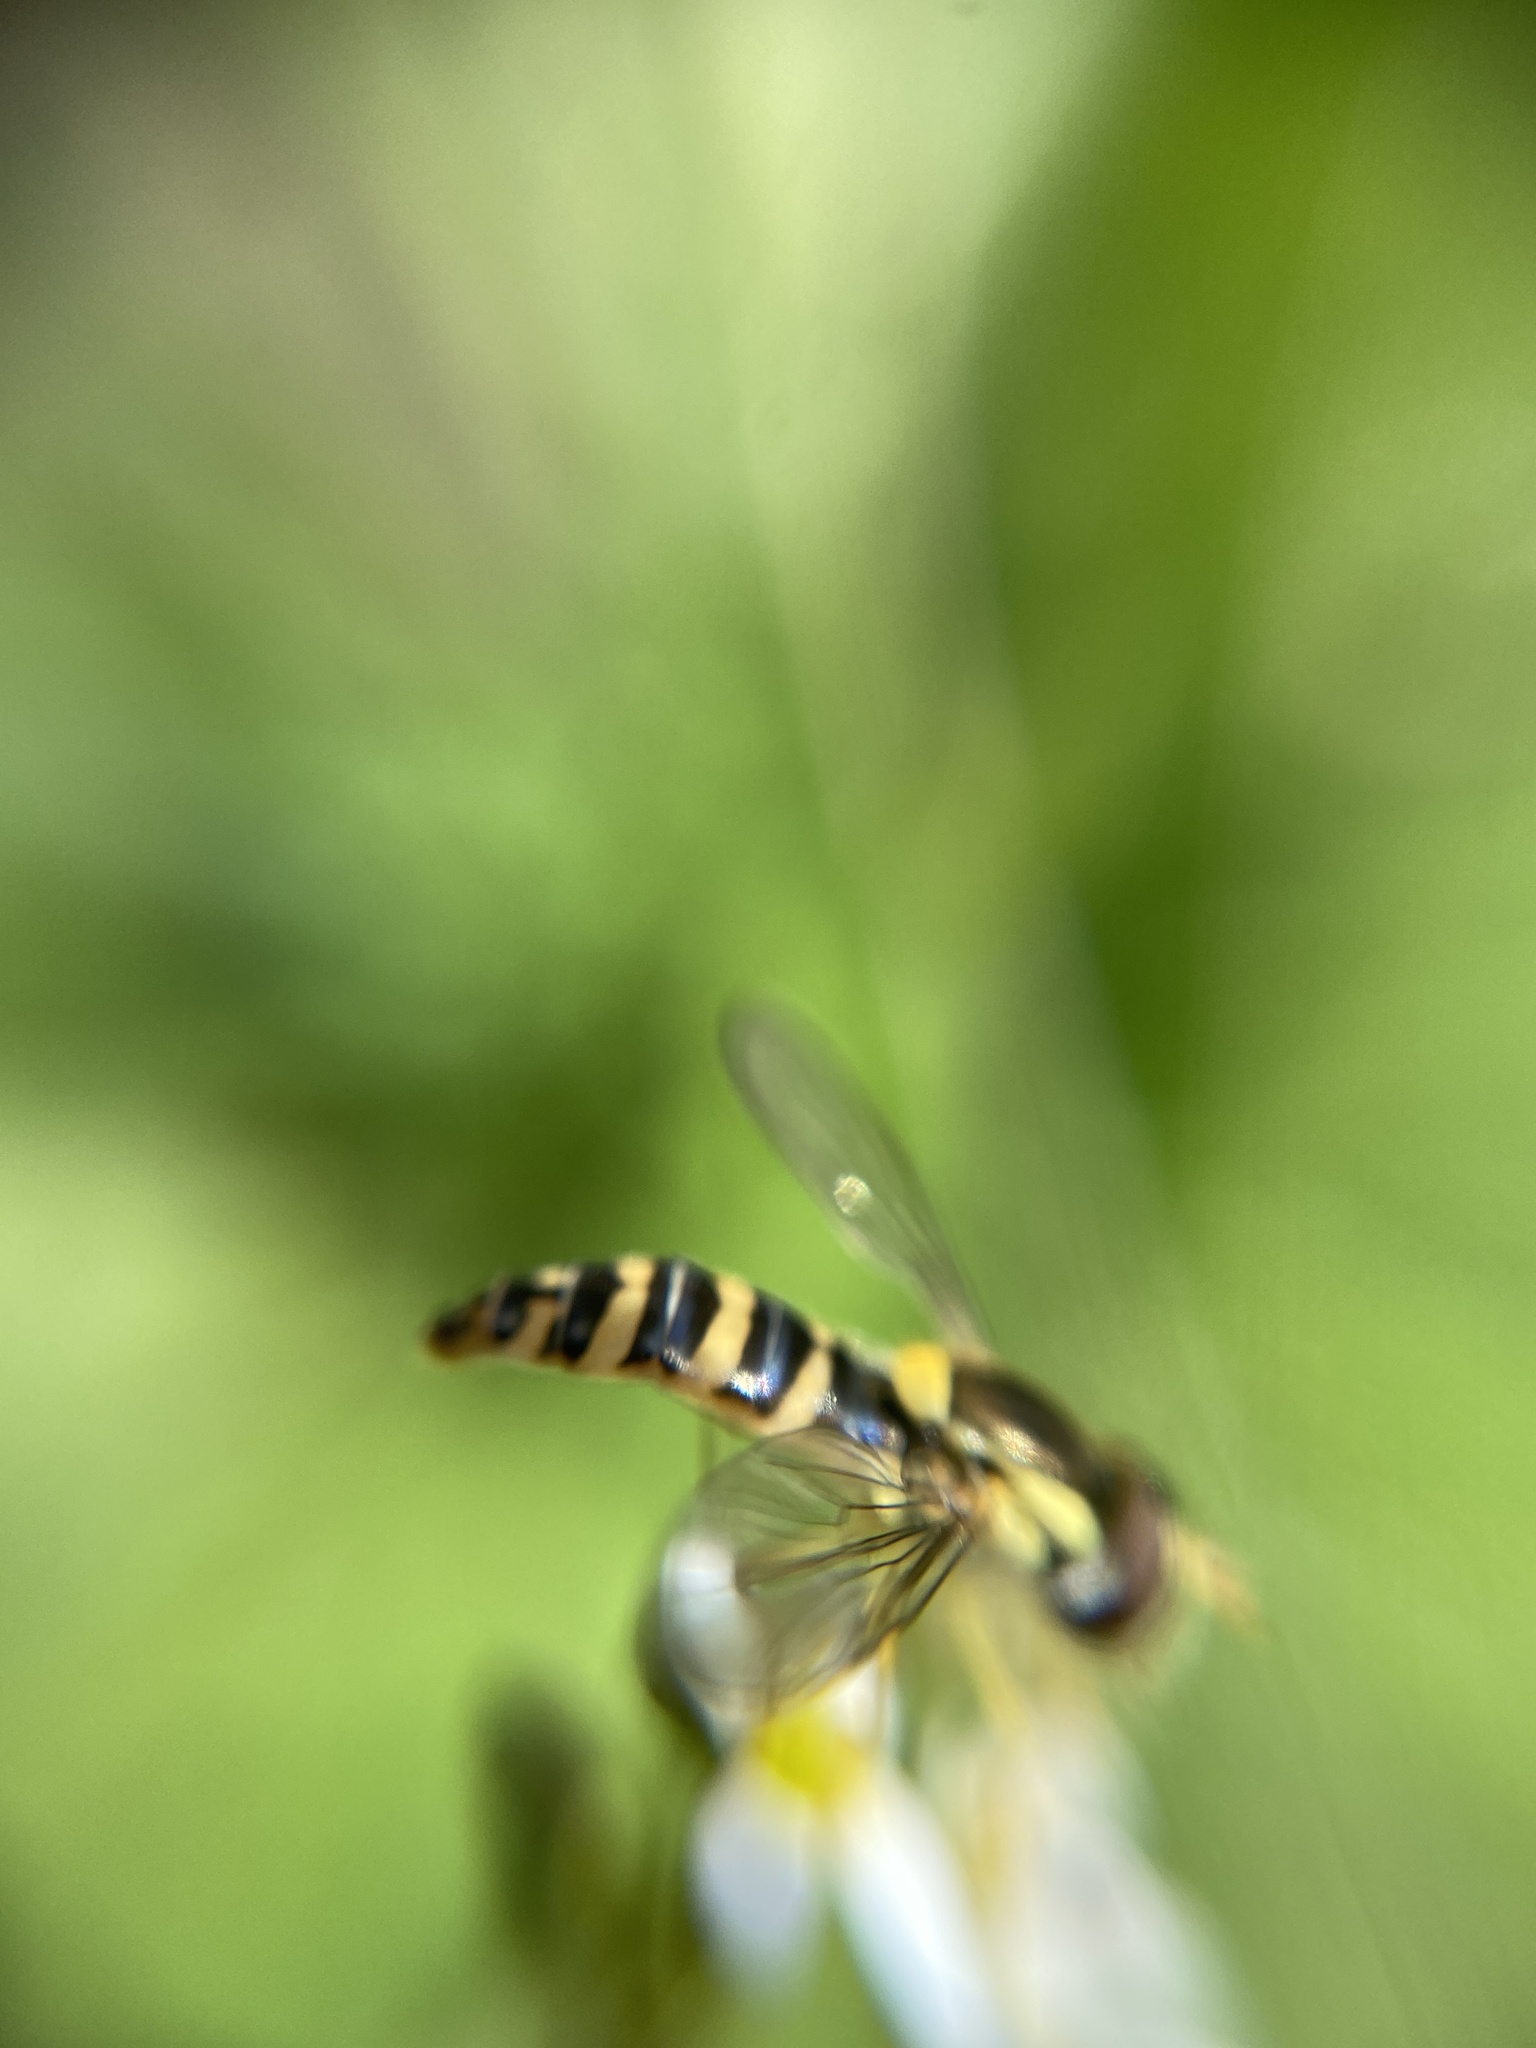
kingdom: Animalia
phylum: Arthropoda
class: Insecta
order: Diptera
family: Syrphidae
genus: Sphaerophoria
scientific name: Sphaerophoria
